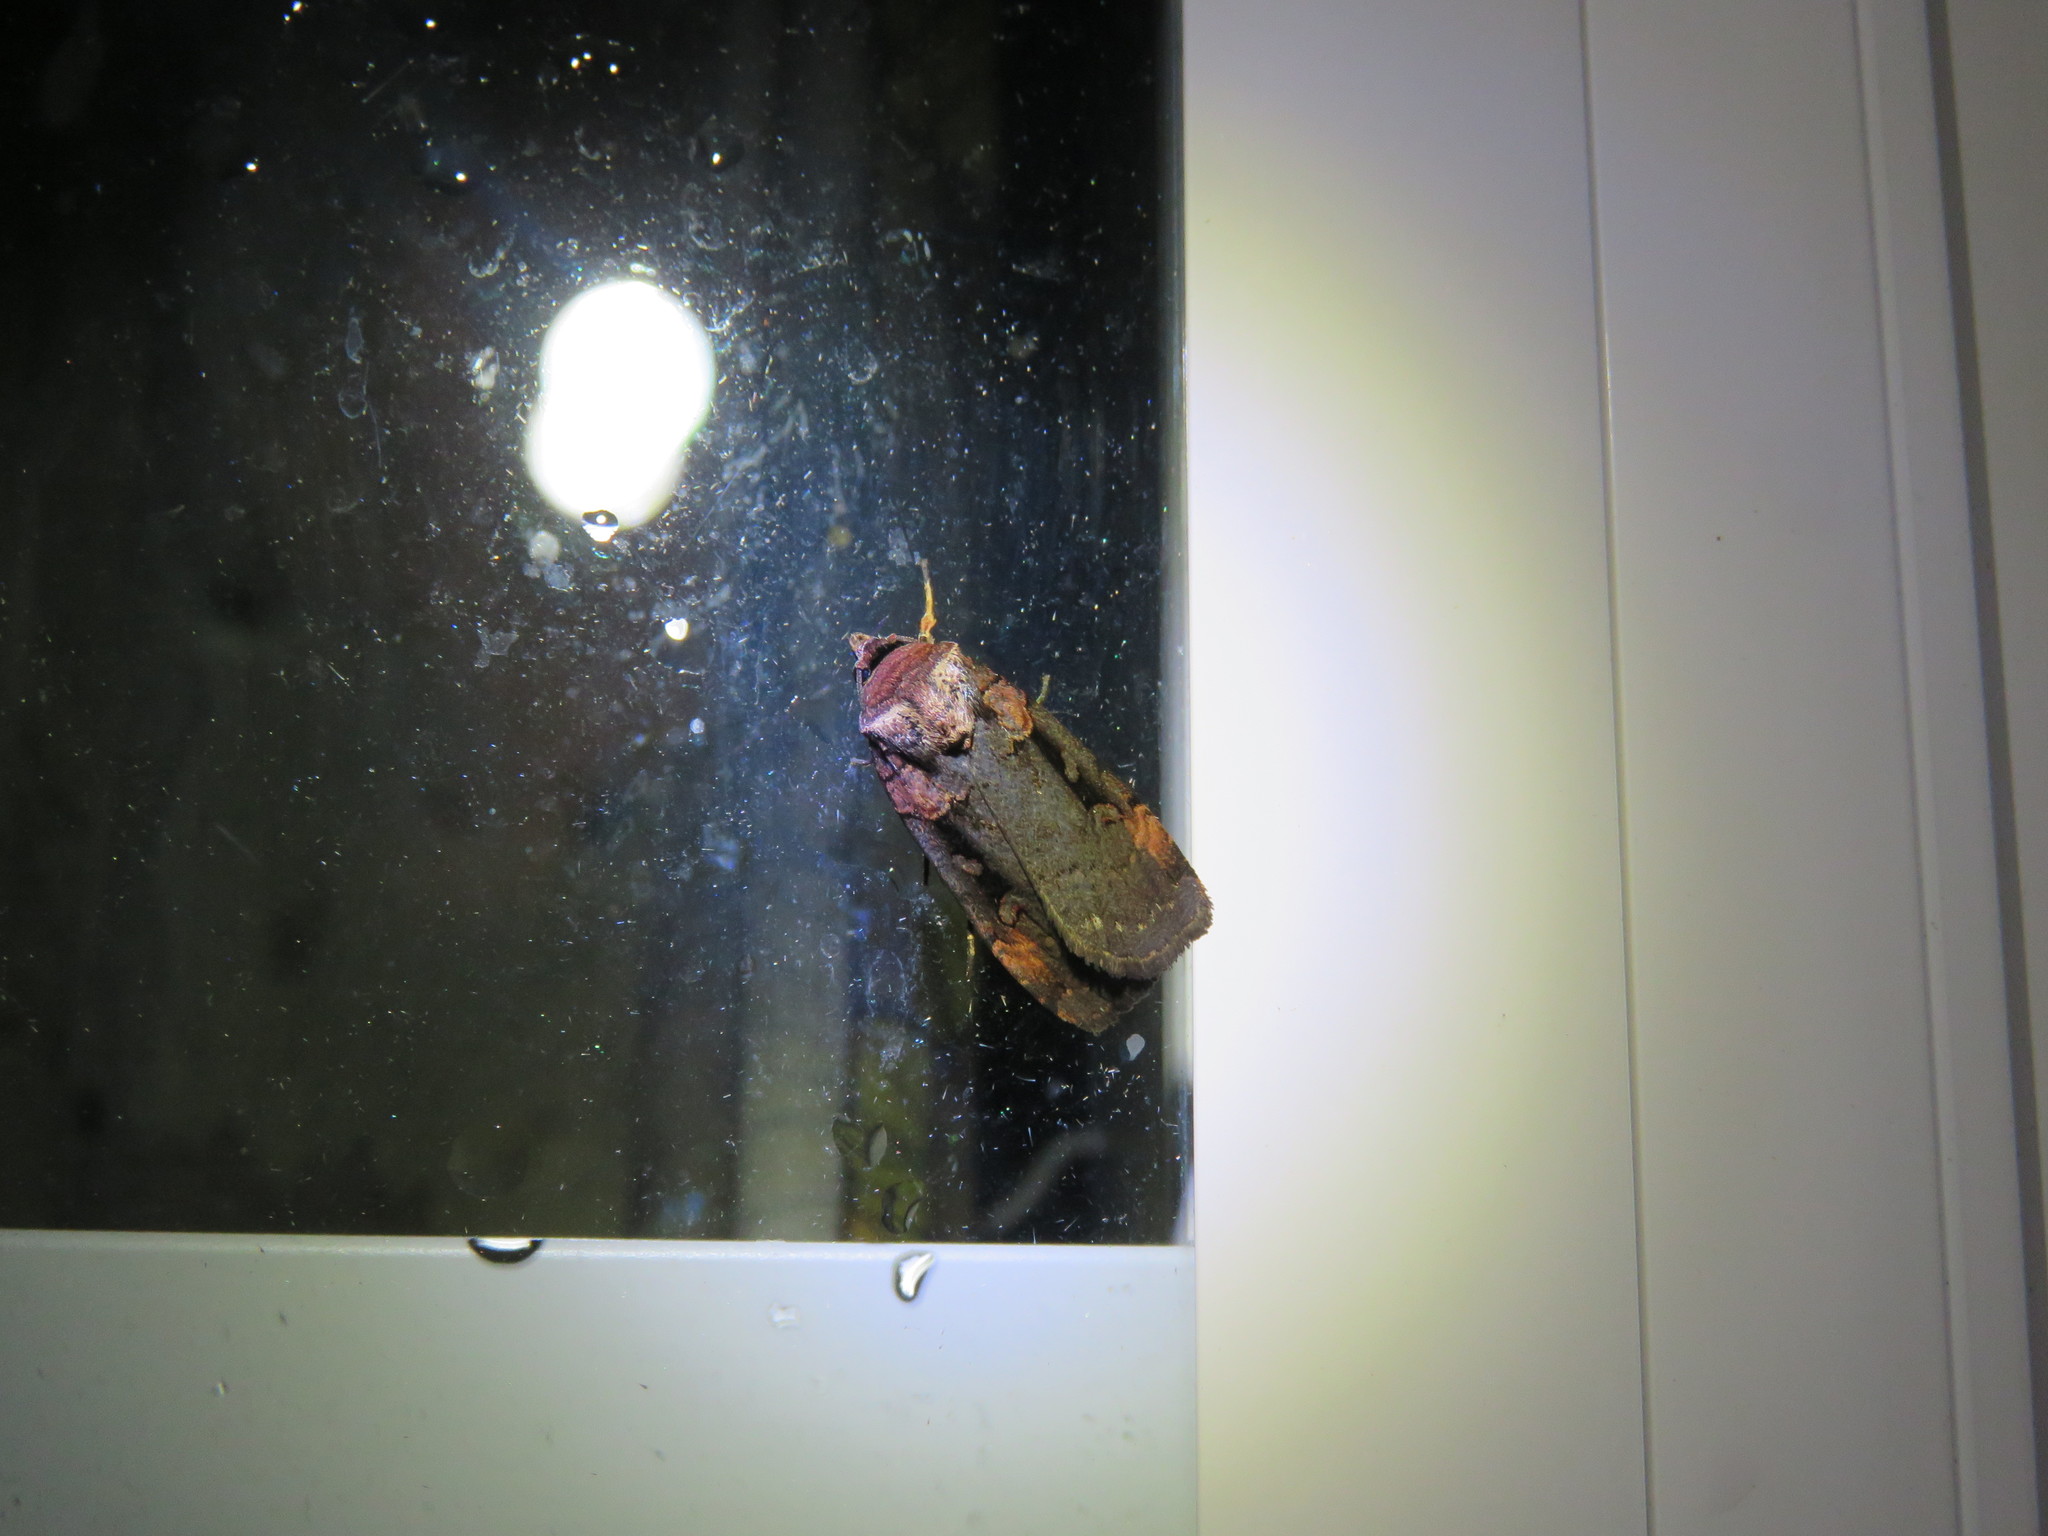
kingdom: Animalia
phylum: Arthropoda
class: Insecta
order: Lepidoptera
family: Noctuidae
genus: Pseudohermonassa
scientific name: Pseudohermonassa bicarnea
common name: Pink spotted dart
